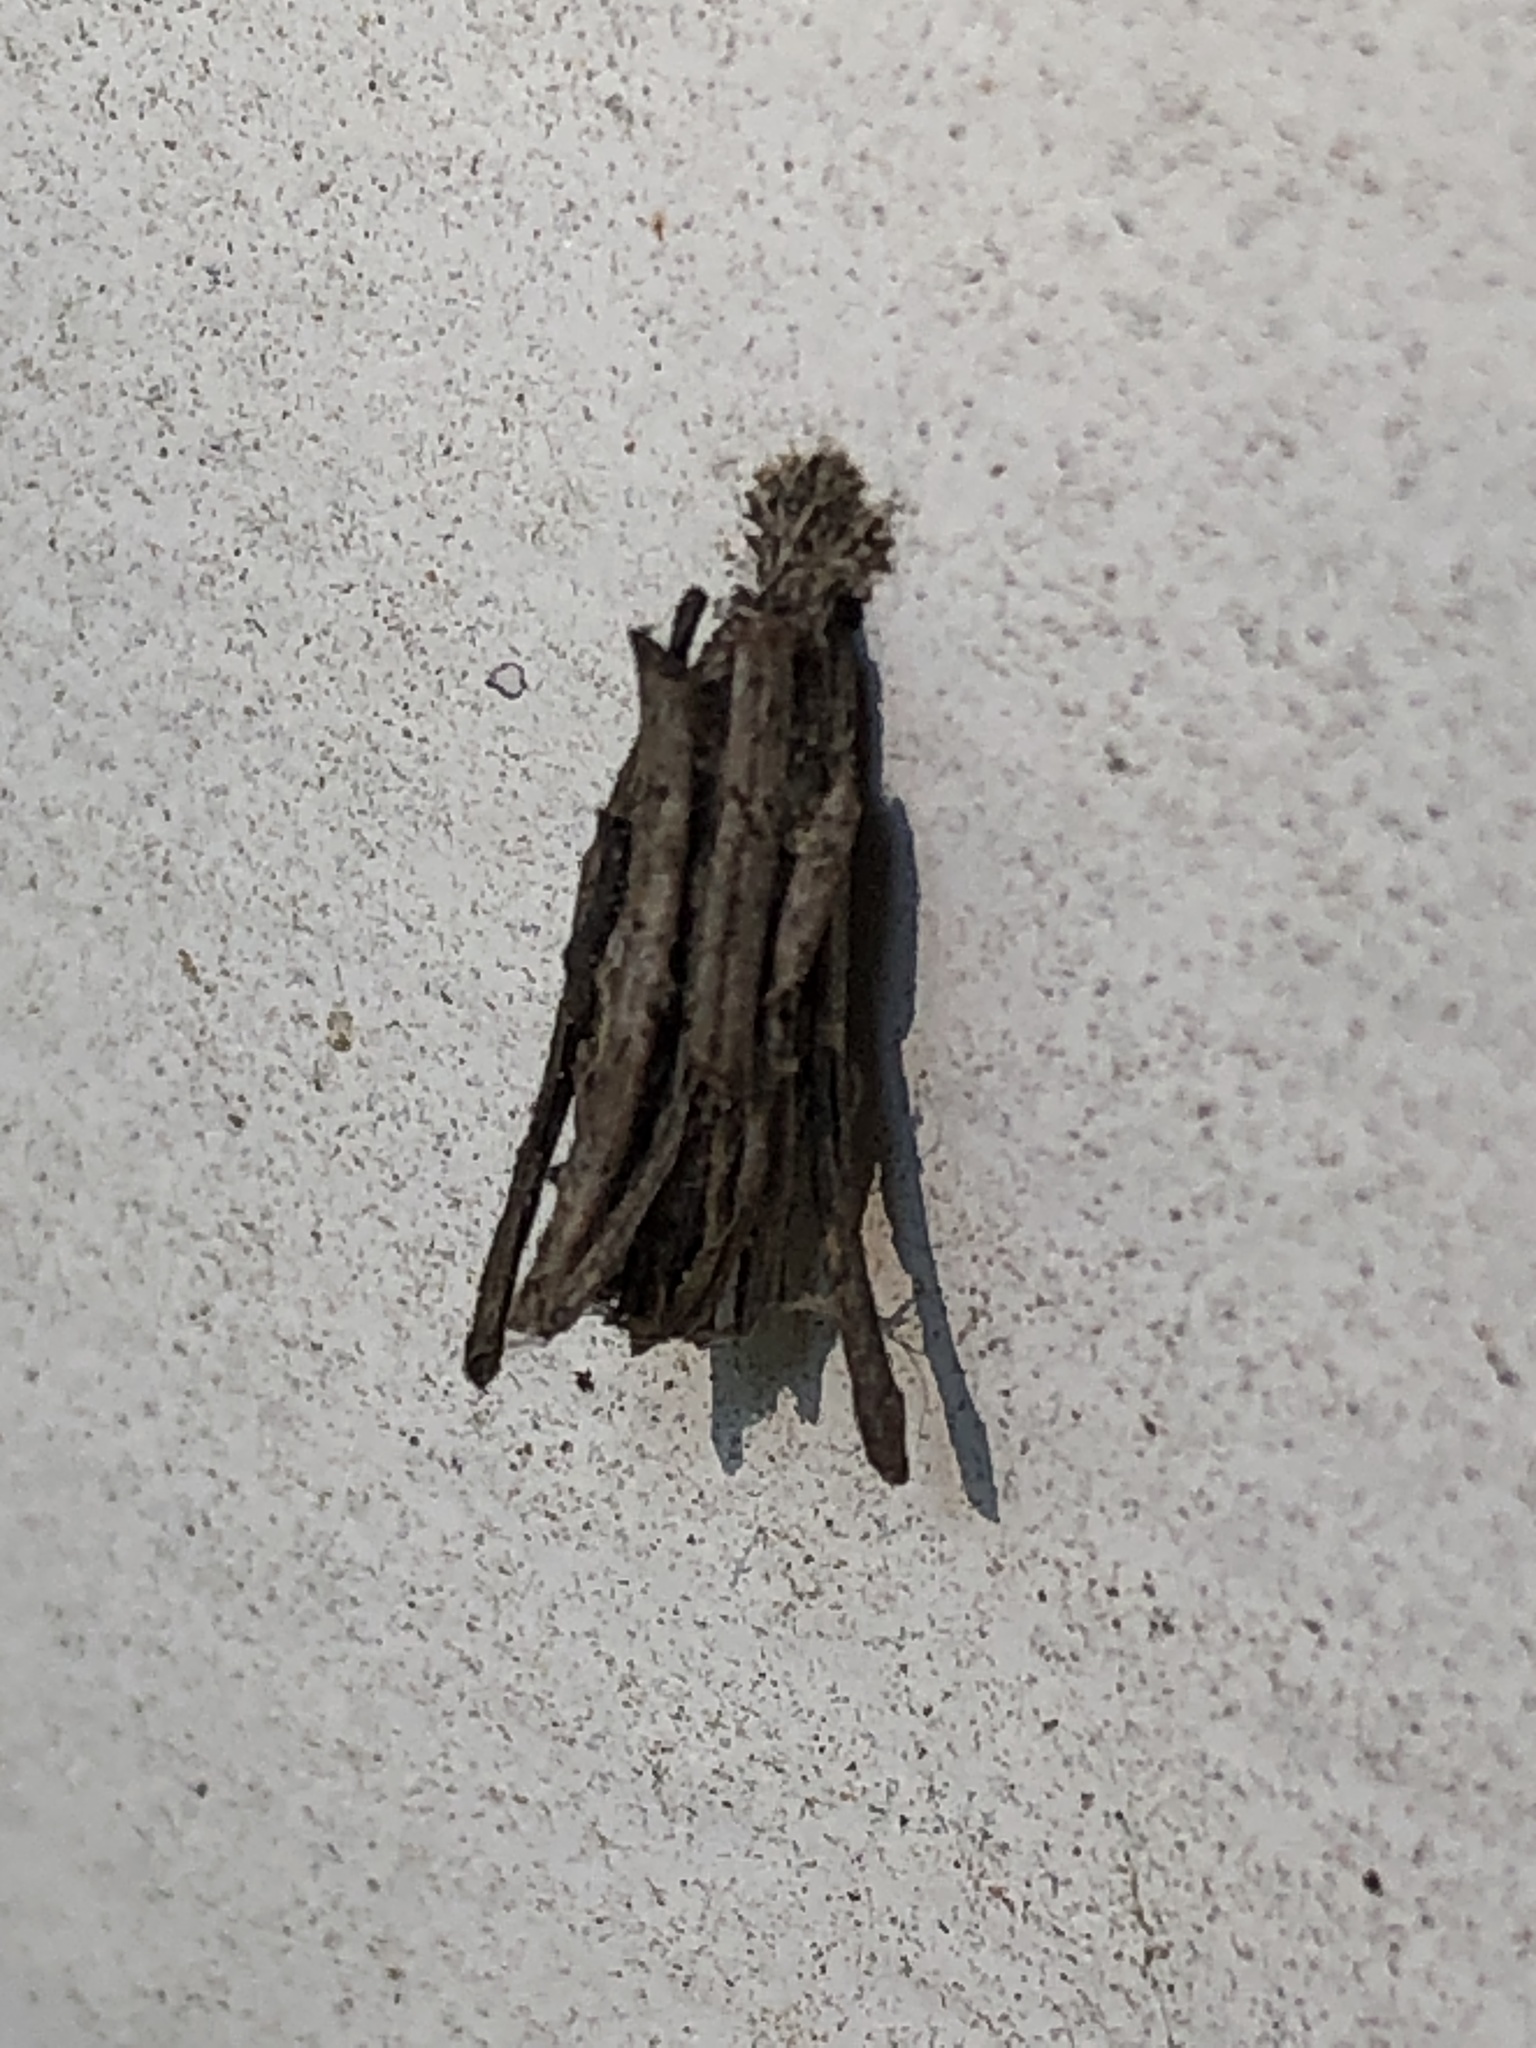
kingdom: Animalia
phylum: Arthropoda
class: Insecta
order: Lepidoptera
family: Psychidae
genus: Psyche
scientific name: Psyche casta
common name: Common sweep
